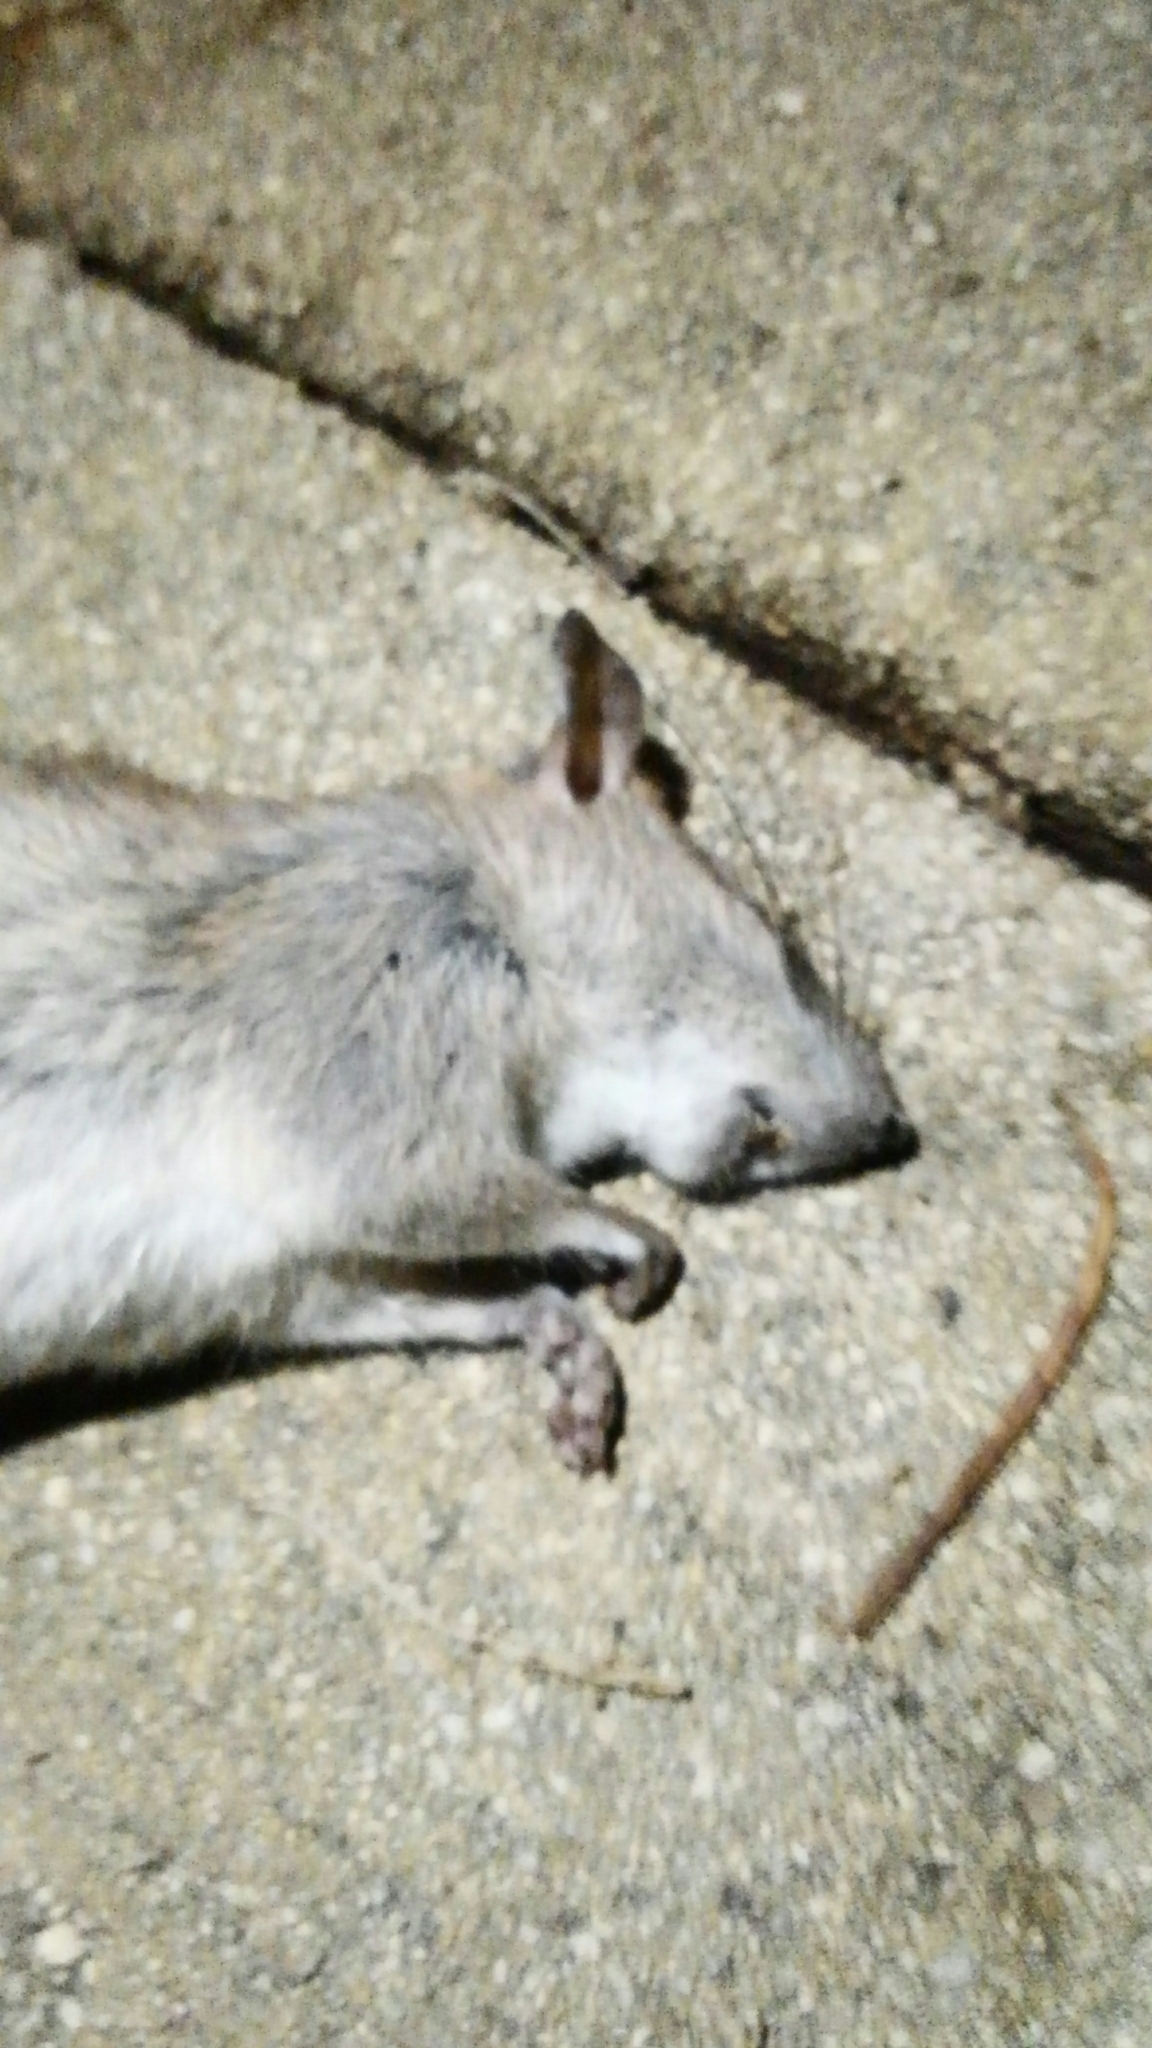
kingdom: Animalia
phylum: Chordata
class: Mammalia
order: Rodentia
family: Muridae
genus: Rattus
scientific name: Rattus rattus
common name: Black rat
